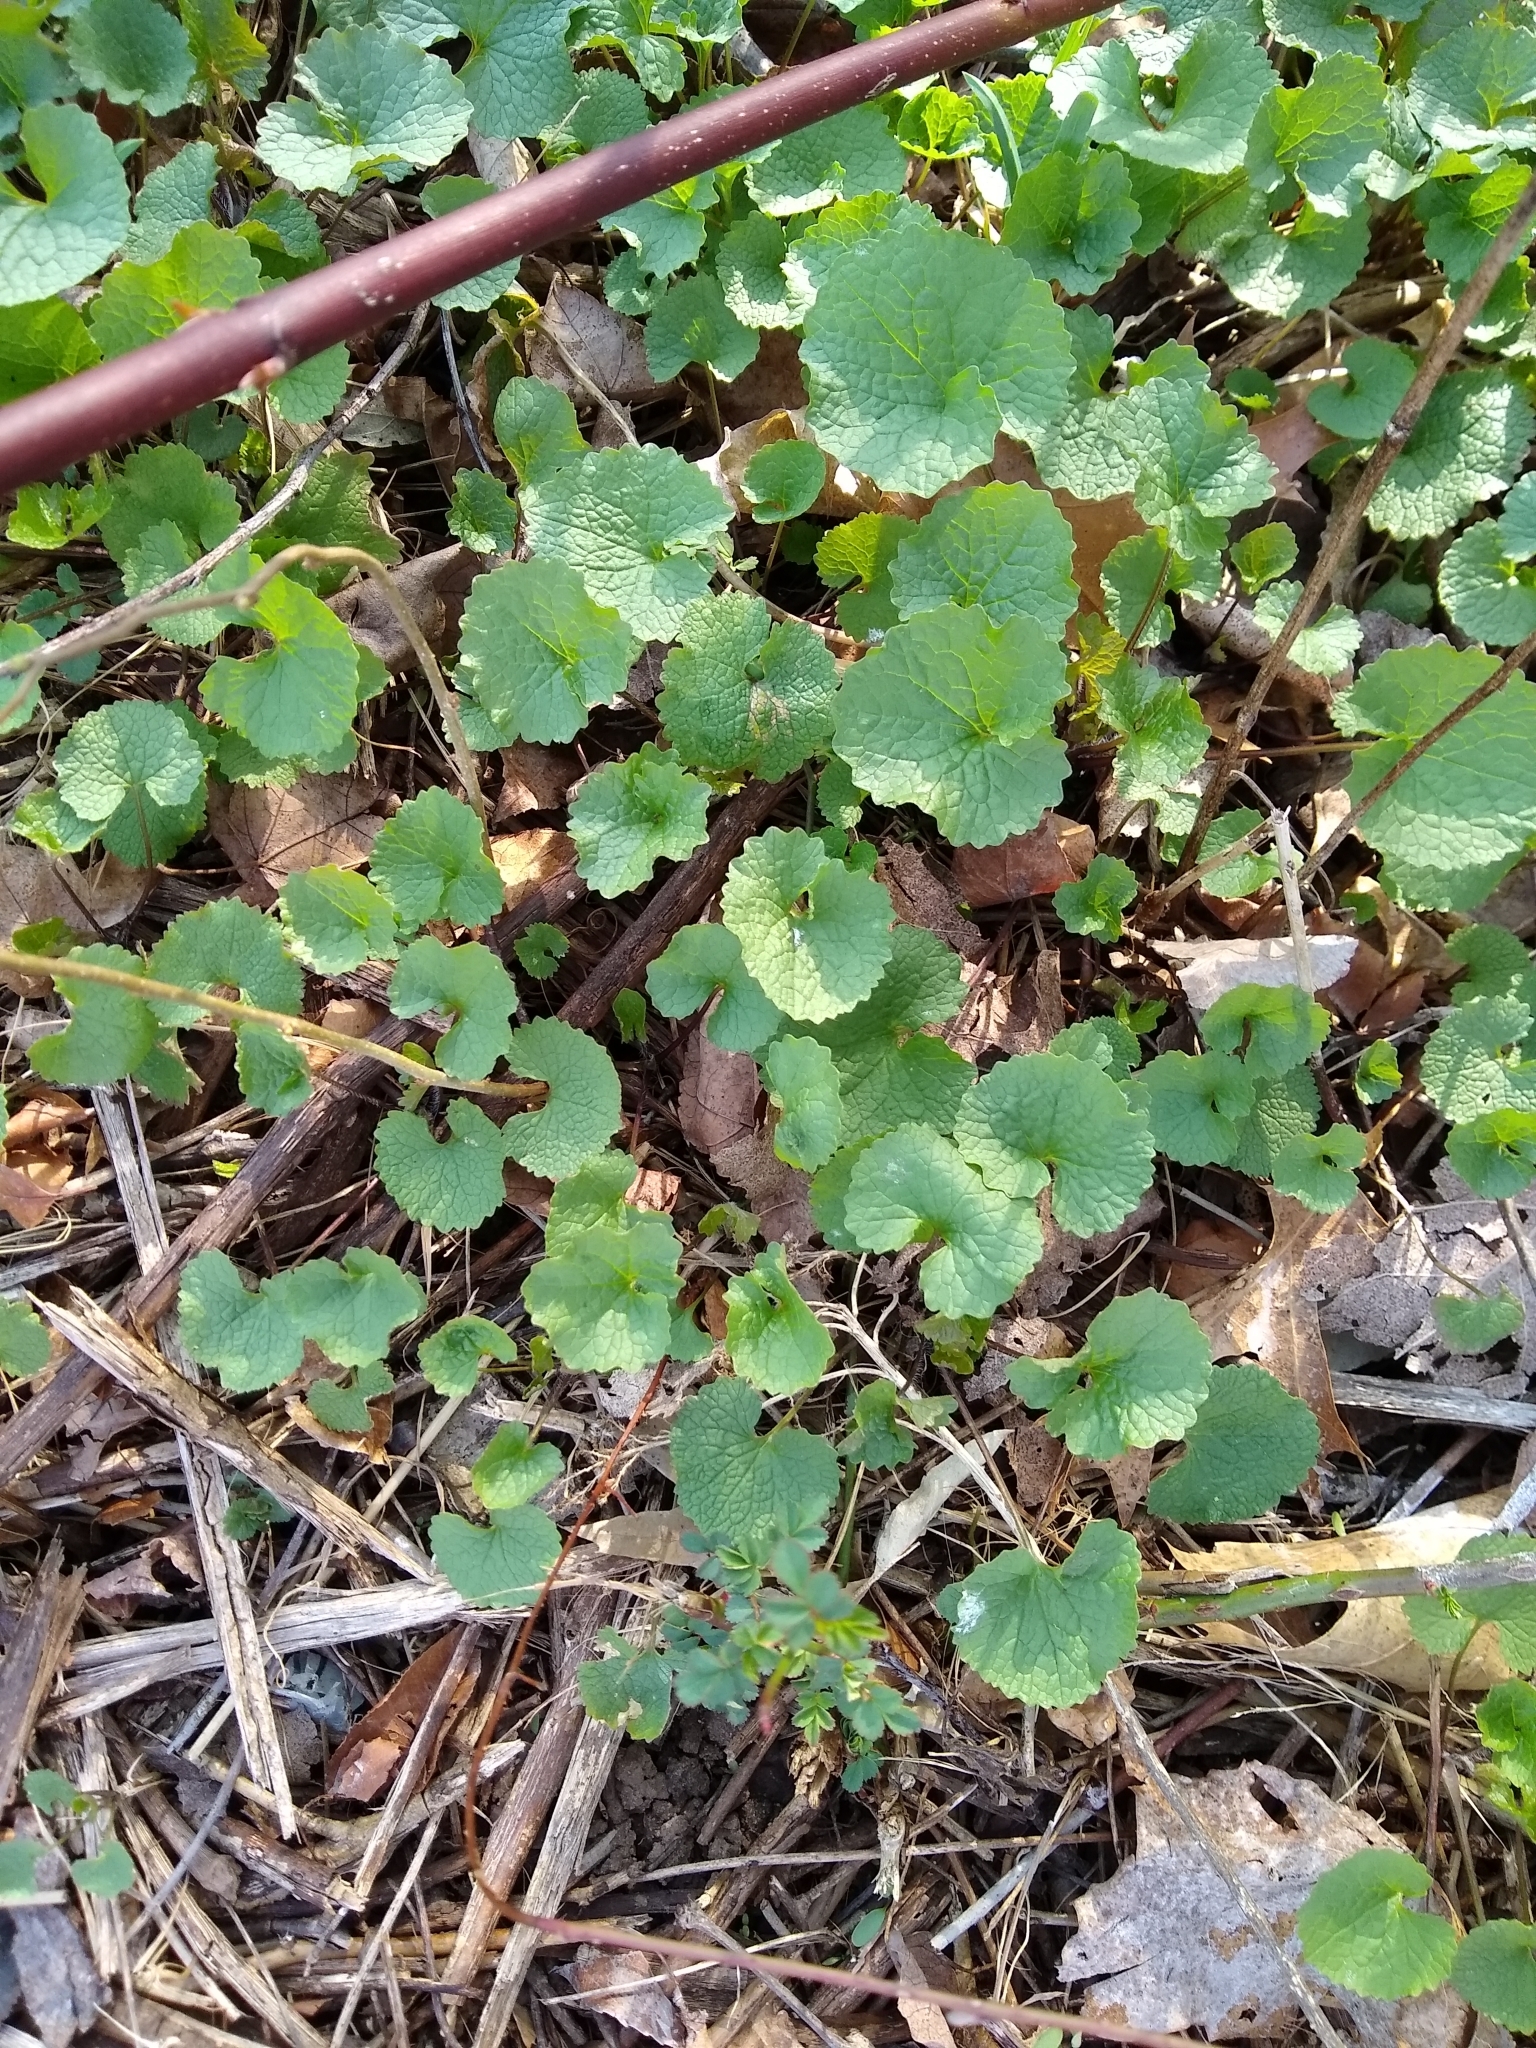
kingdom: Plantae
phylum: Tracheophyta
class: Magnoliopsida
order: Brassicales
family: Brassicaceae
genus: Alliaria
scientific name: Alliaria petiolata
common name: Garlic mustard
